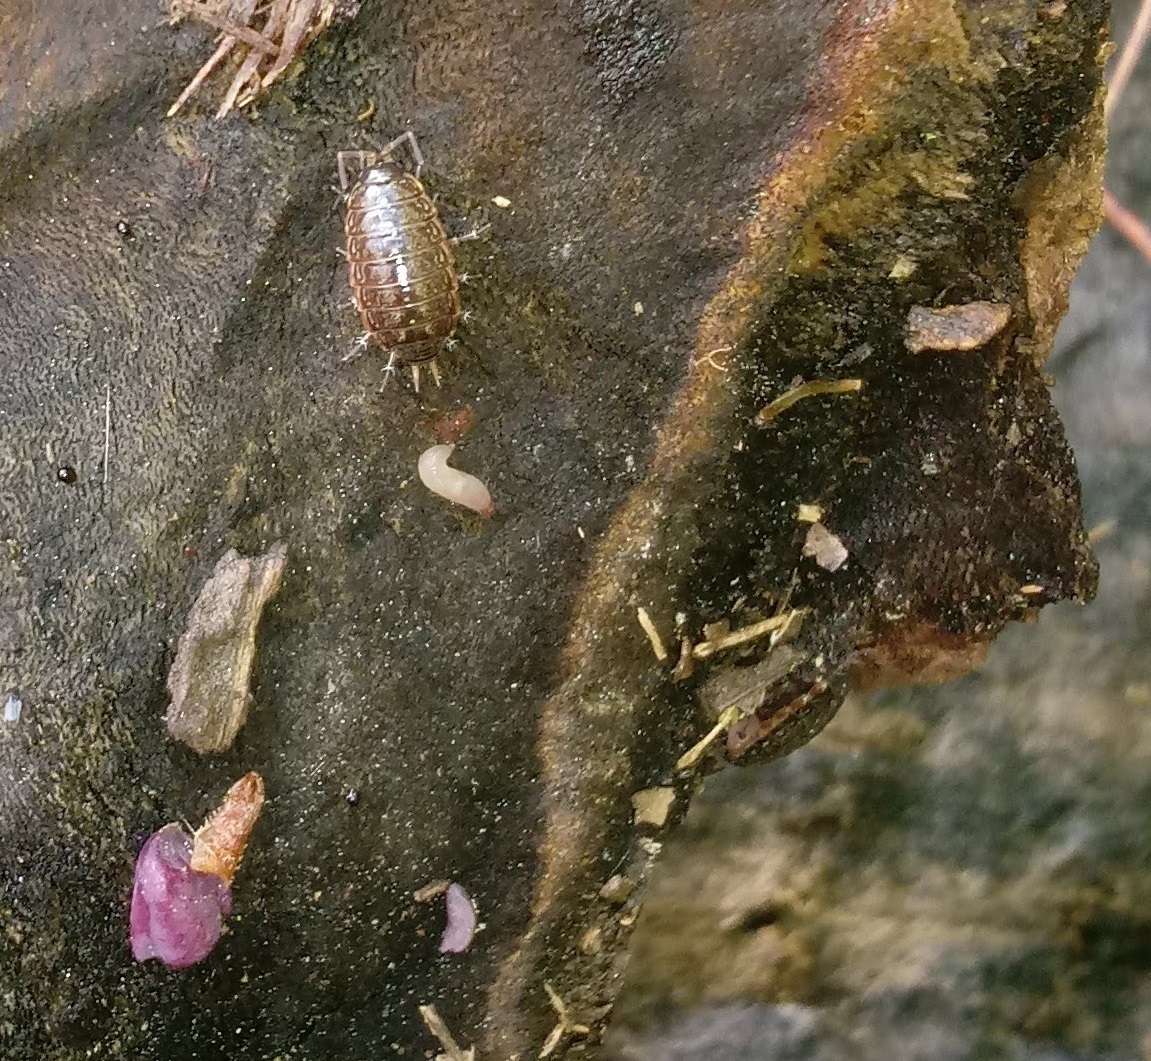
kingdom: Animalia
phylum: Arthropoda
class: Malacostraca
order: Isopoda
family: Philosciidae
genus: Philoscia
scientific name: Philoscia muscorum
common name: Common striped woodlouse
